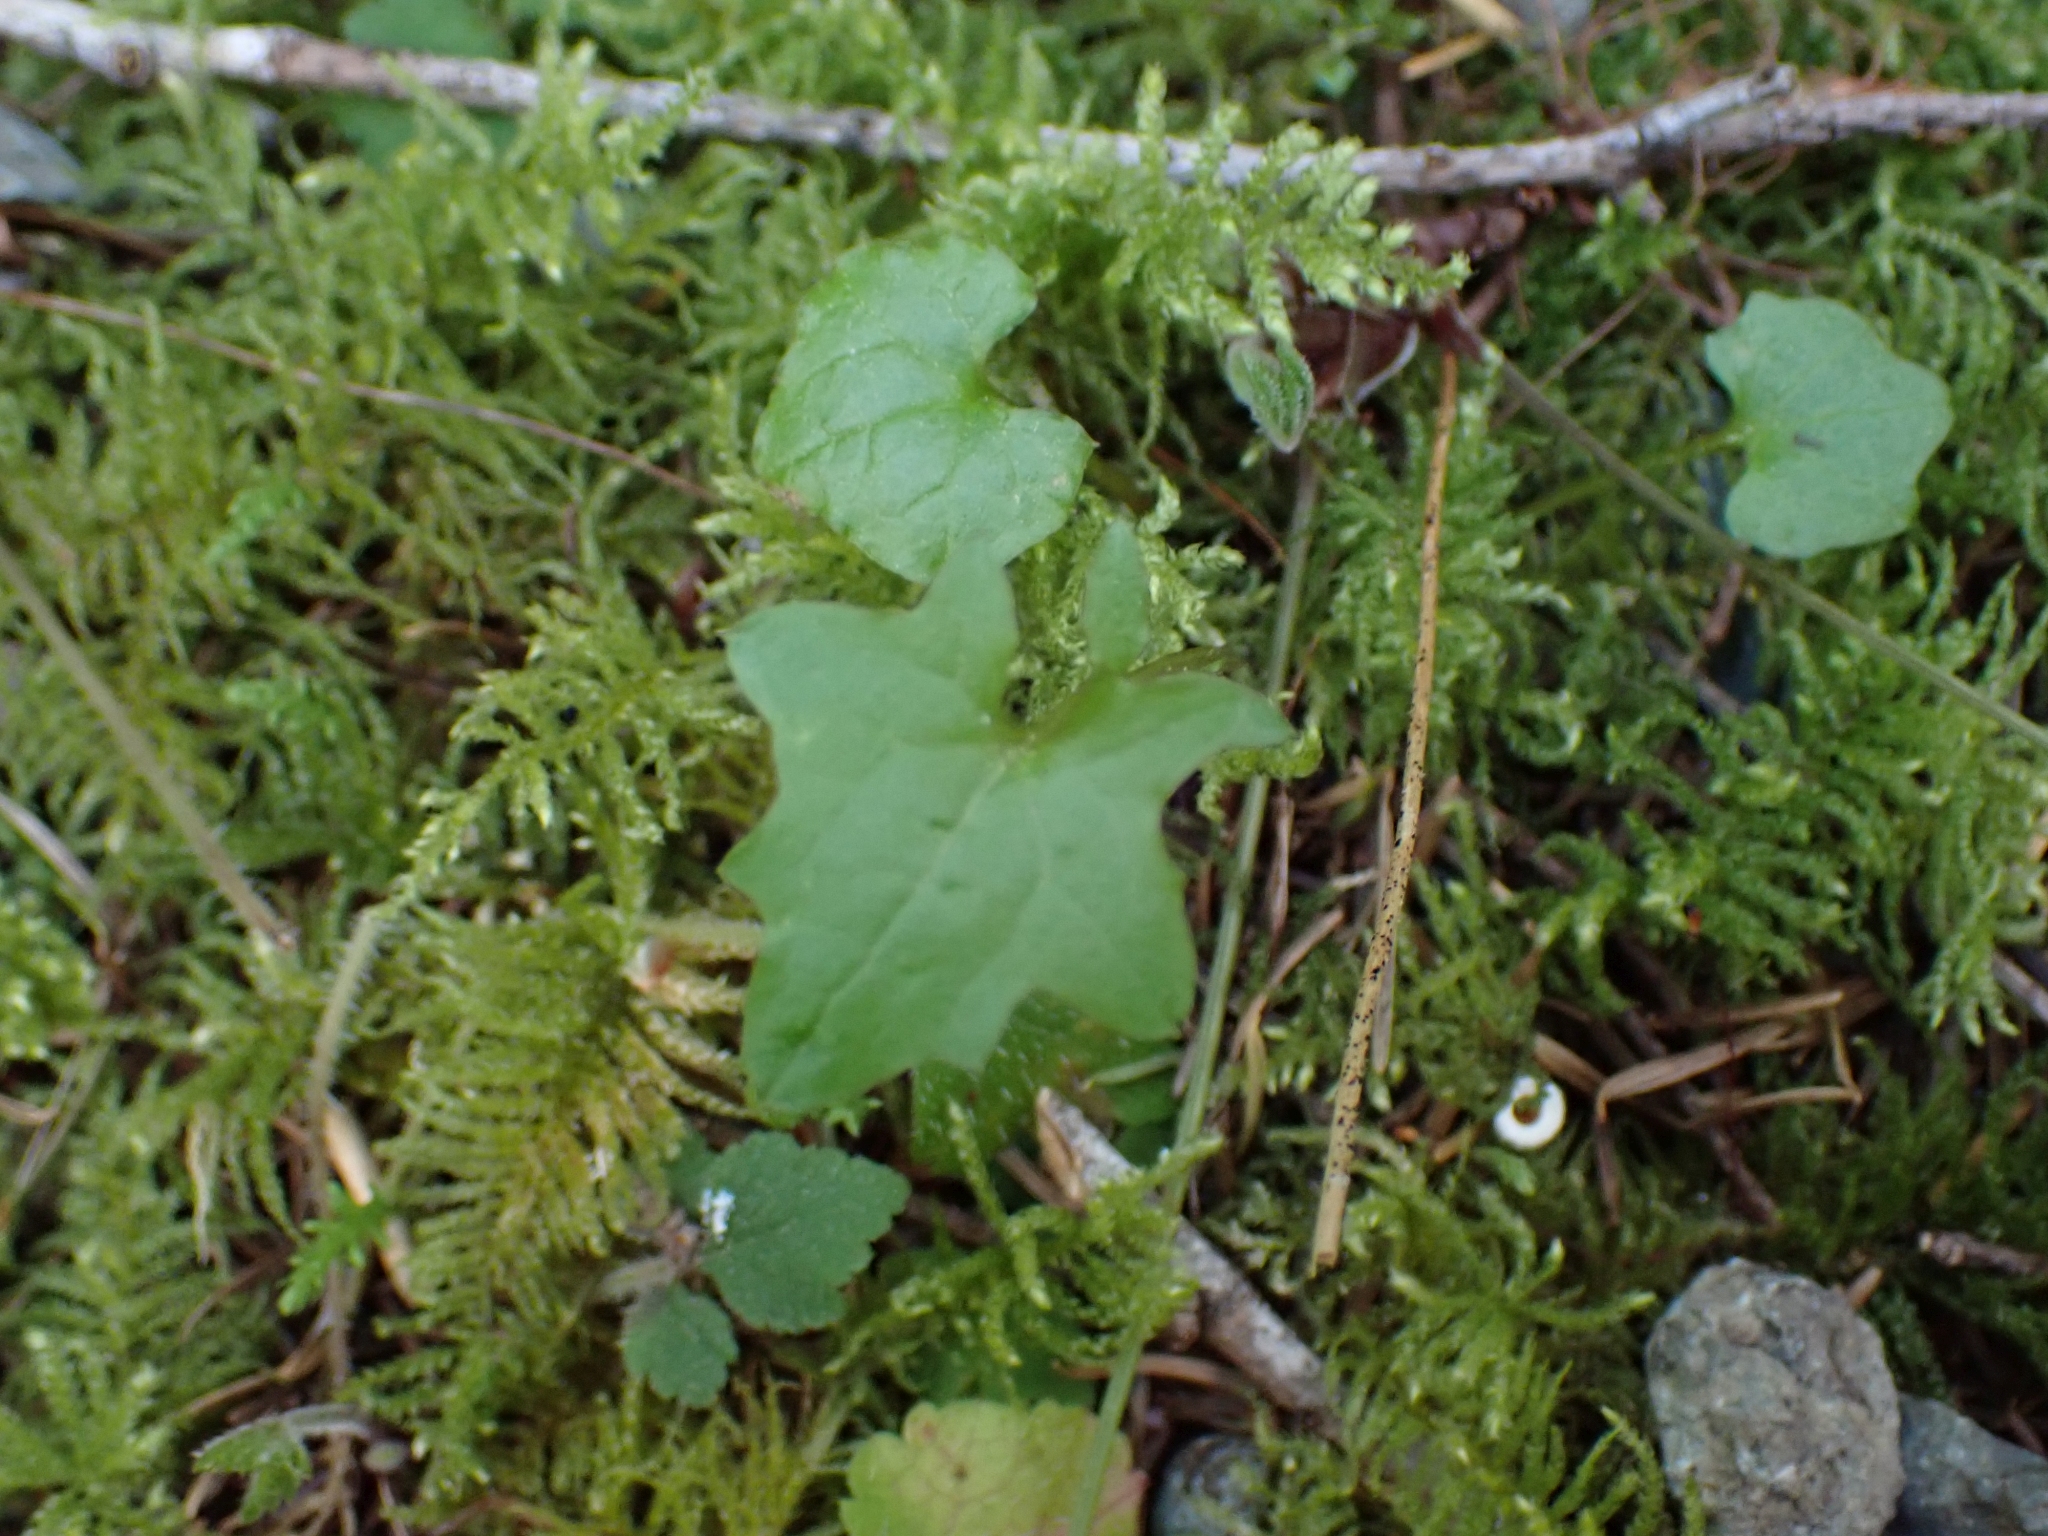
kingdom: Plantae
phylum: Tracheophyta
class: Magnoliopsida
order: Asterales
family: Asteraceae
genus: Mycelis
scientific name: Mycelis muralis
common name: Wall lettuce
